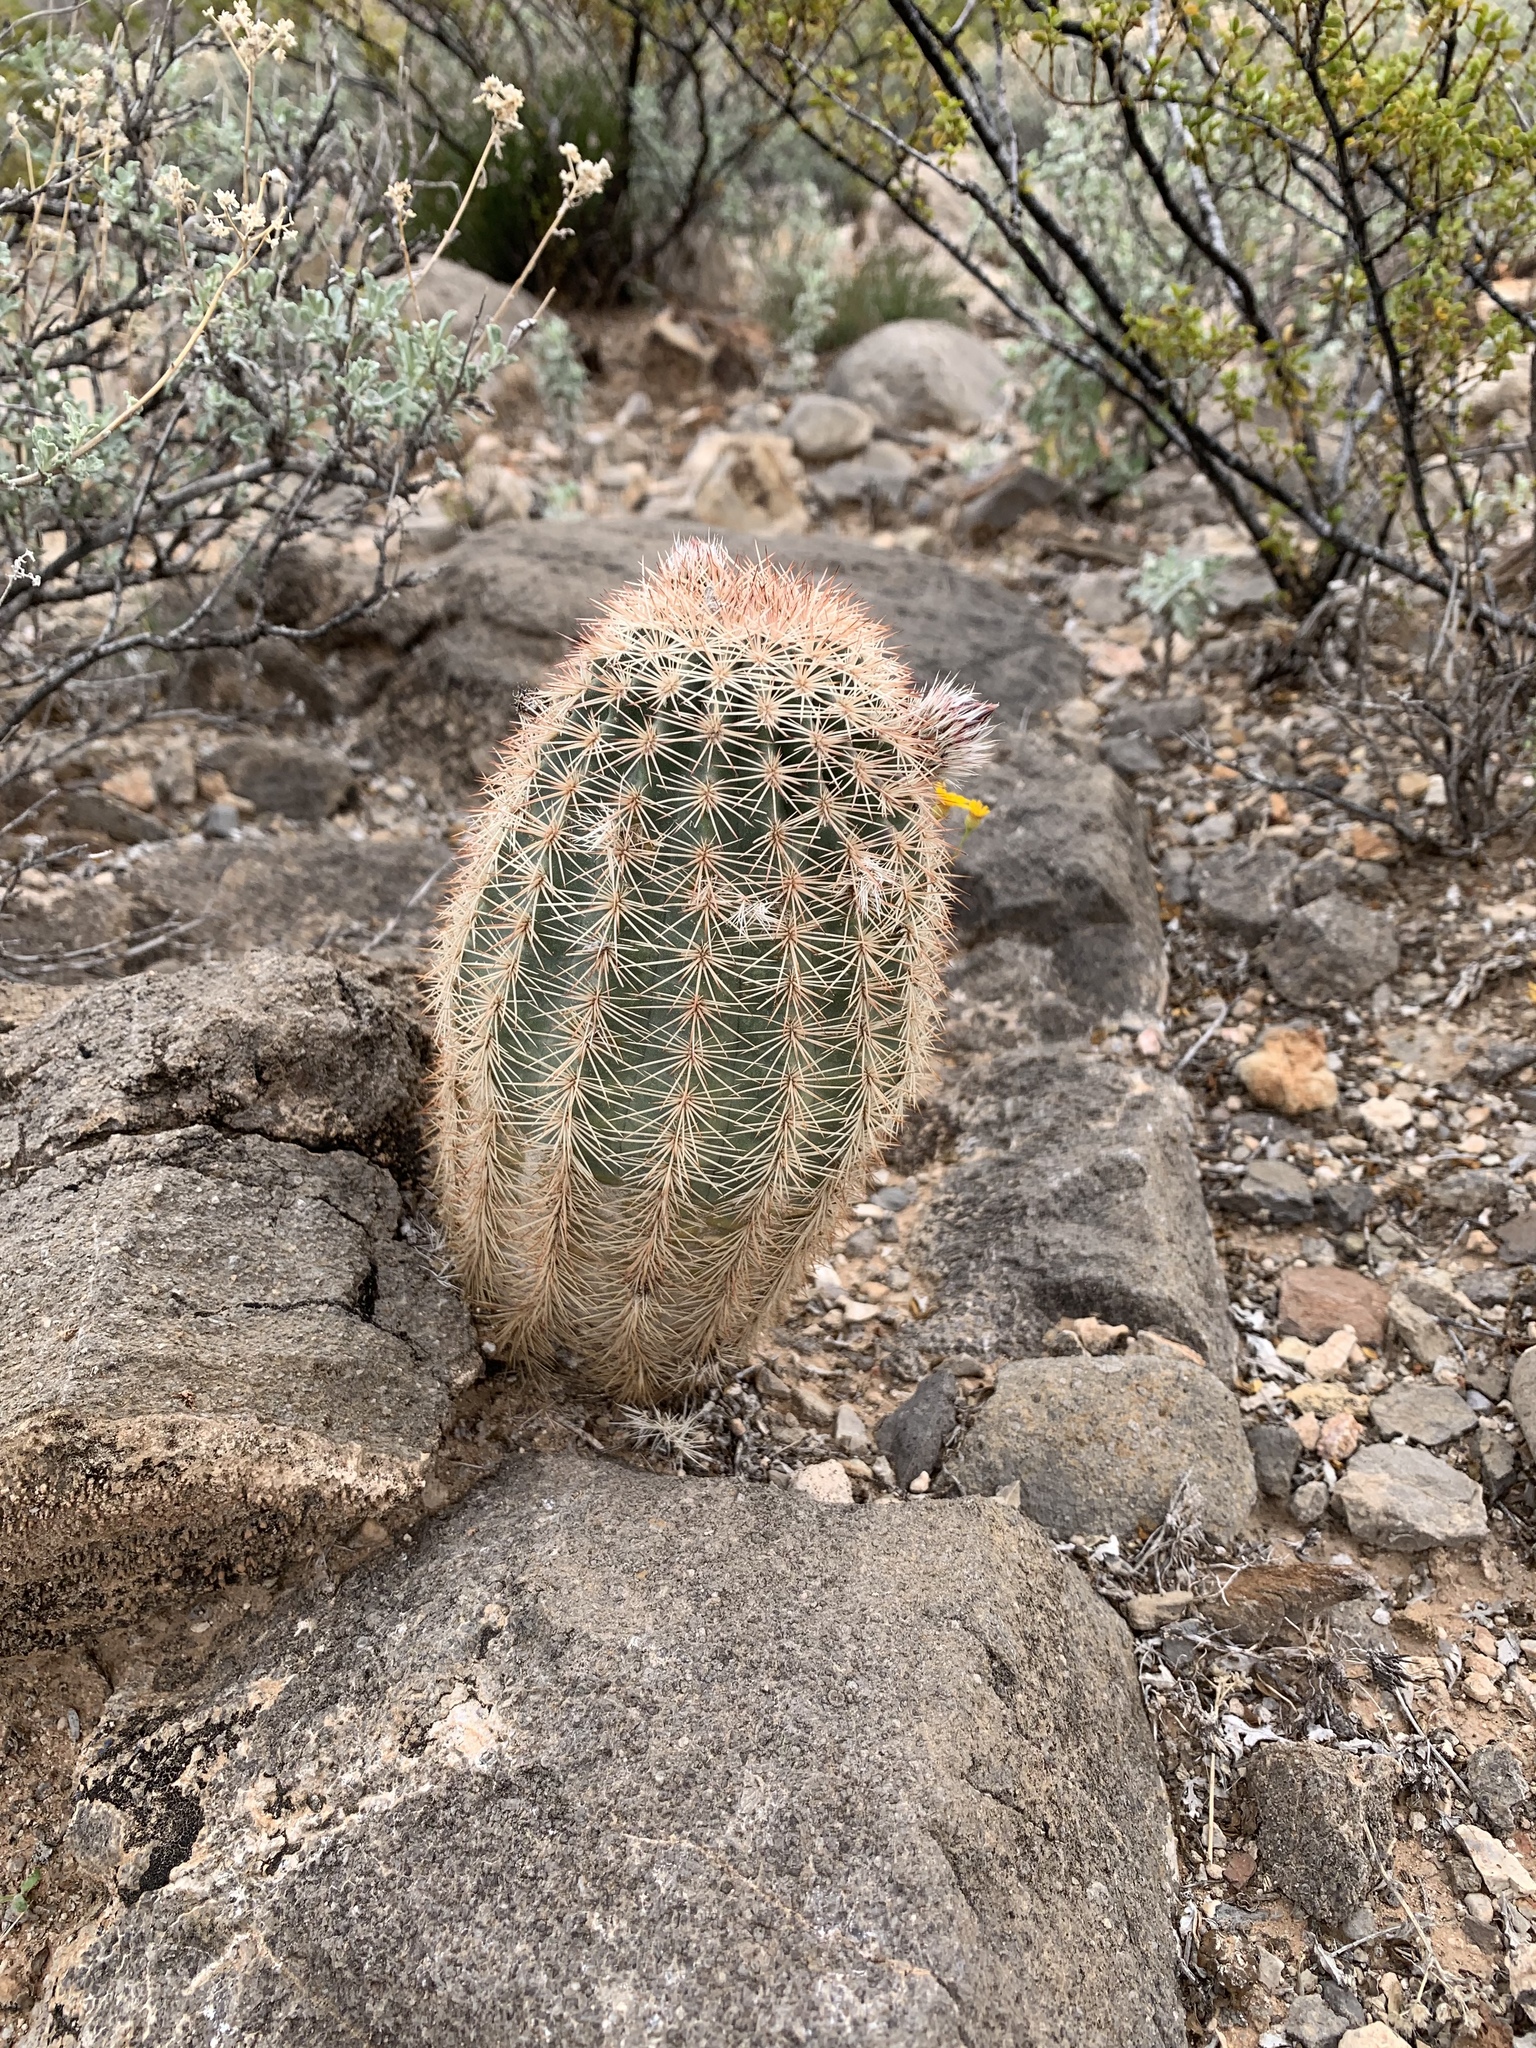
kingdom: Plantae
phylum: Tracheophyta
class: Magnoliopsida
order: Caryophyllales
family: Cactaceae
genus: Echinocereus
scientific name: Echinocereus dasyacanthus
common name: Spiny hedgehog cactus
